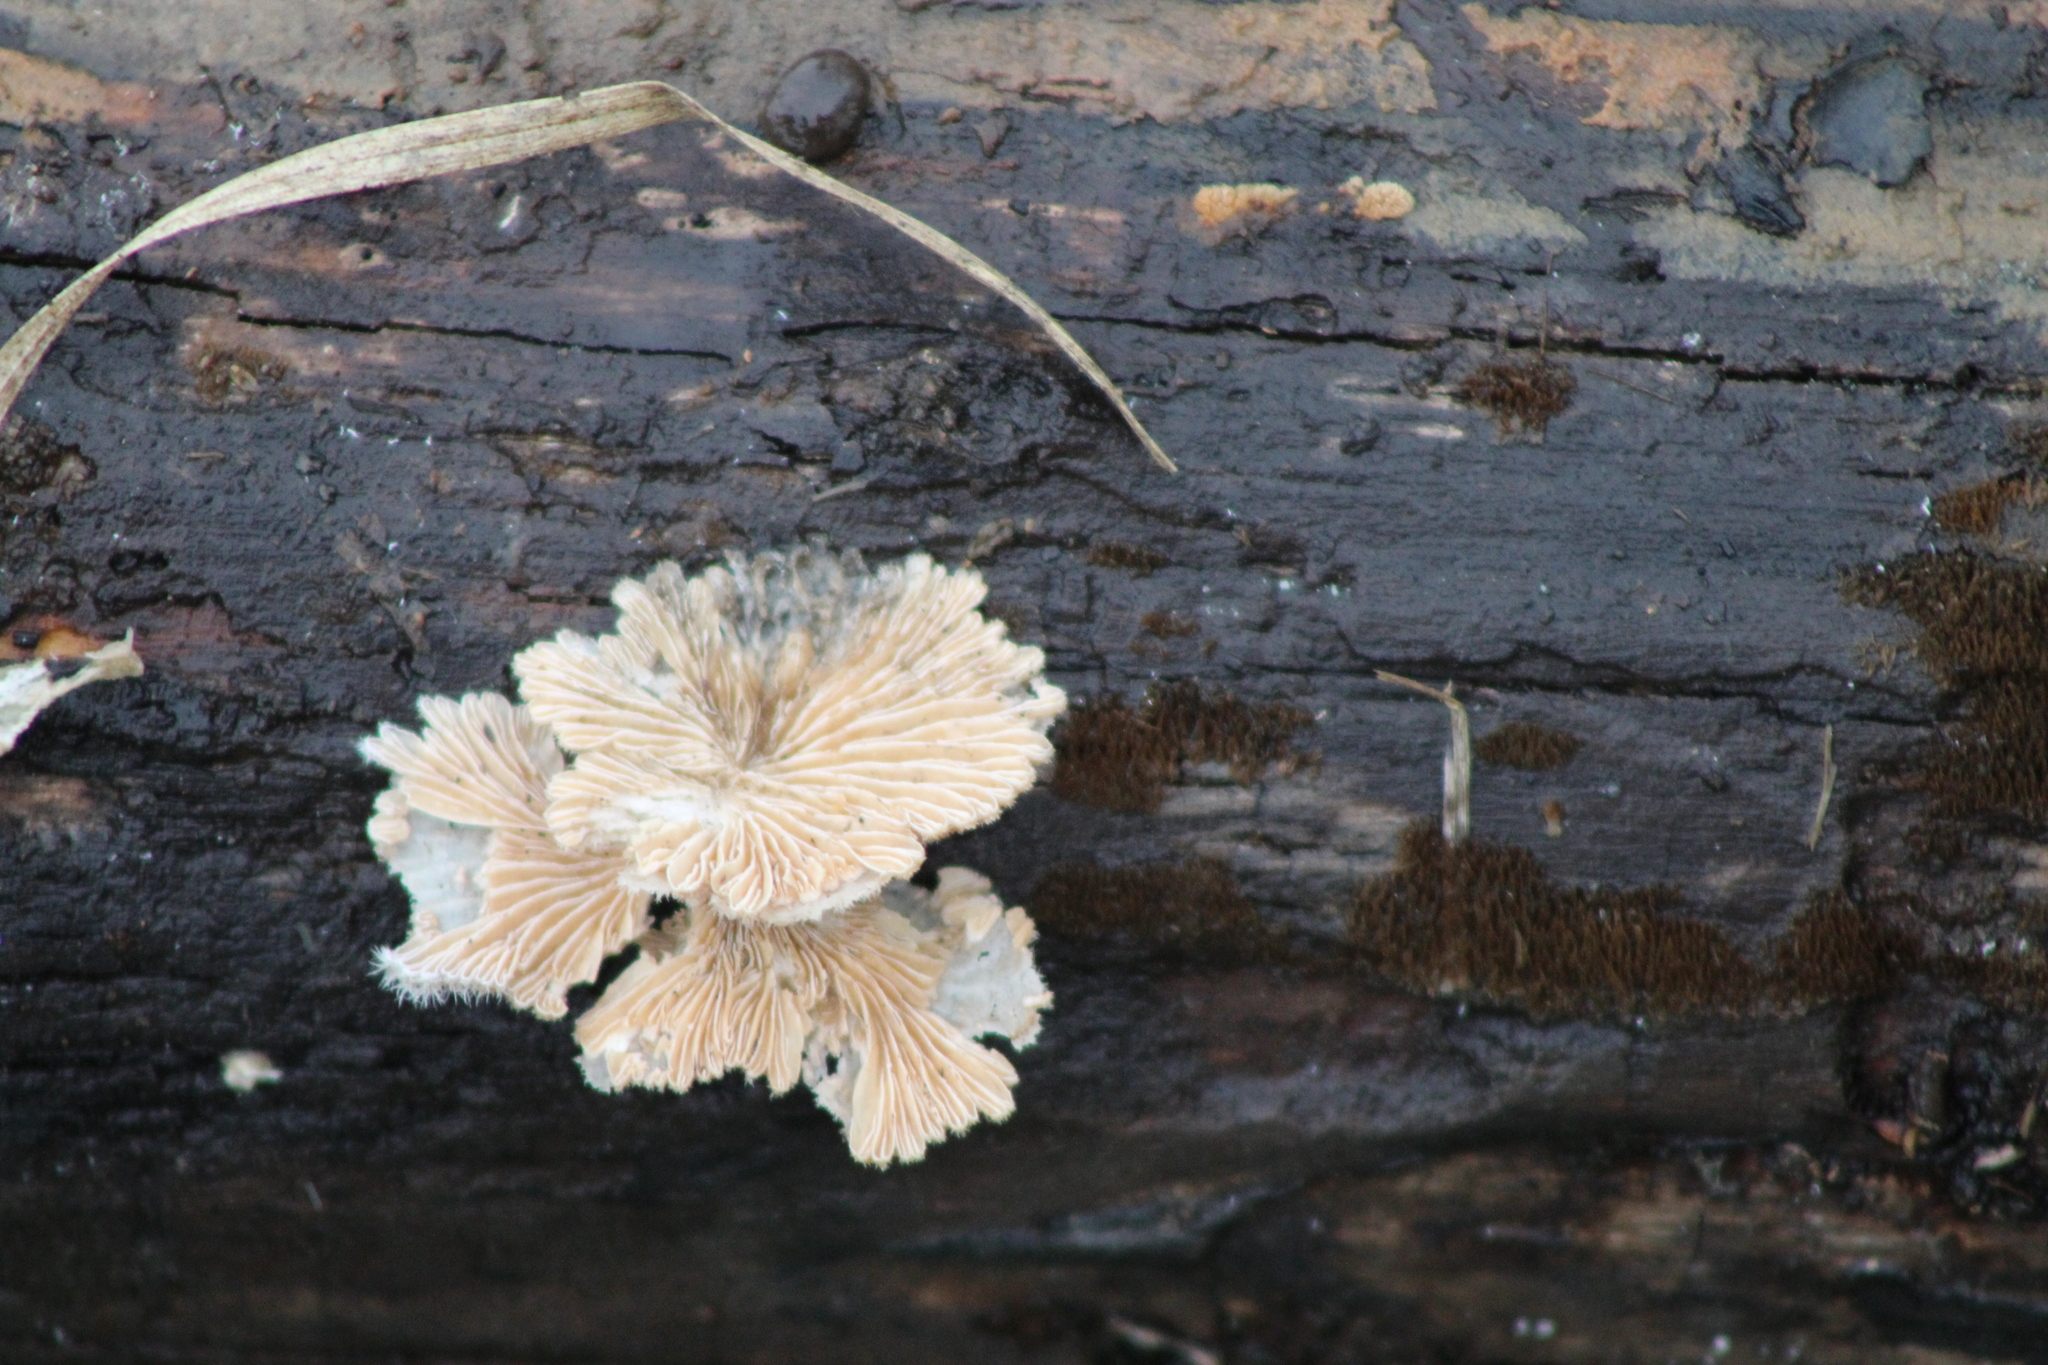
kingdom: Fungi
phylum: Basidiomycota
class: Agaricomycetes
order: Agaricales
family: Schizophyllaceae
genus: Schizophyllum
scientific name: Schizophyllum commune
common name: Common porecrust
